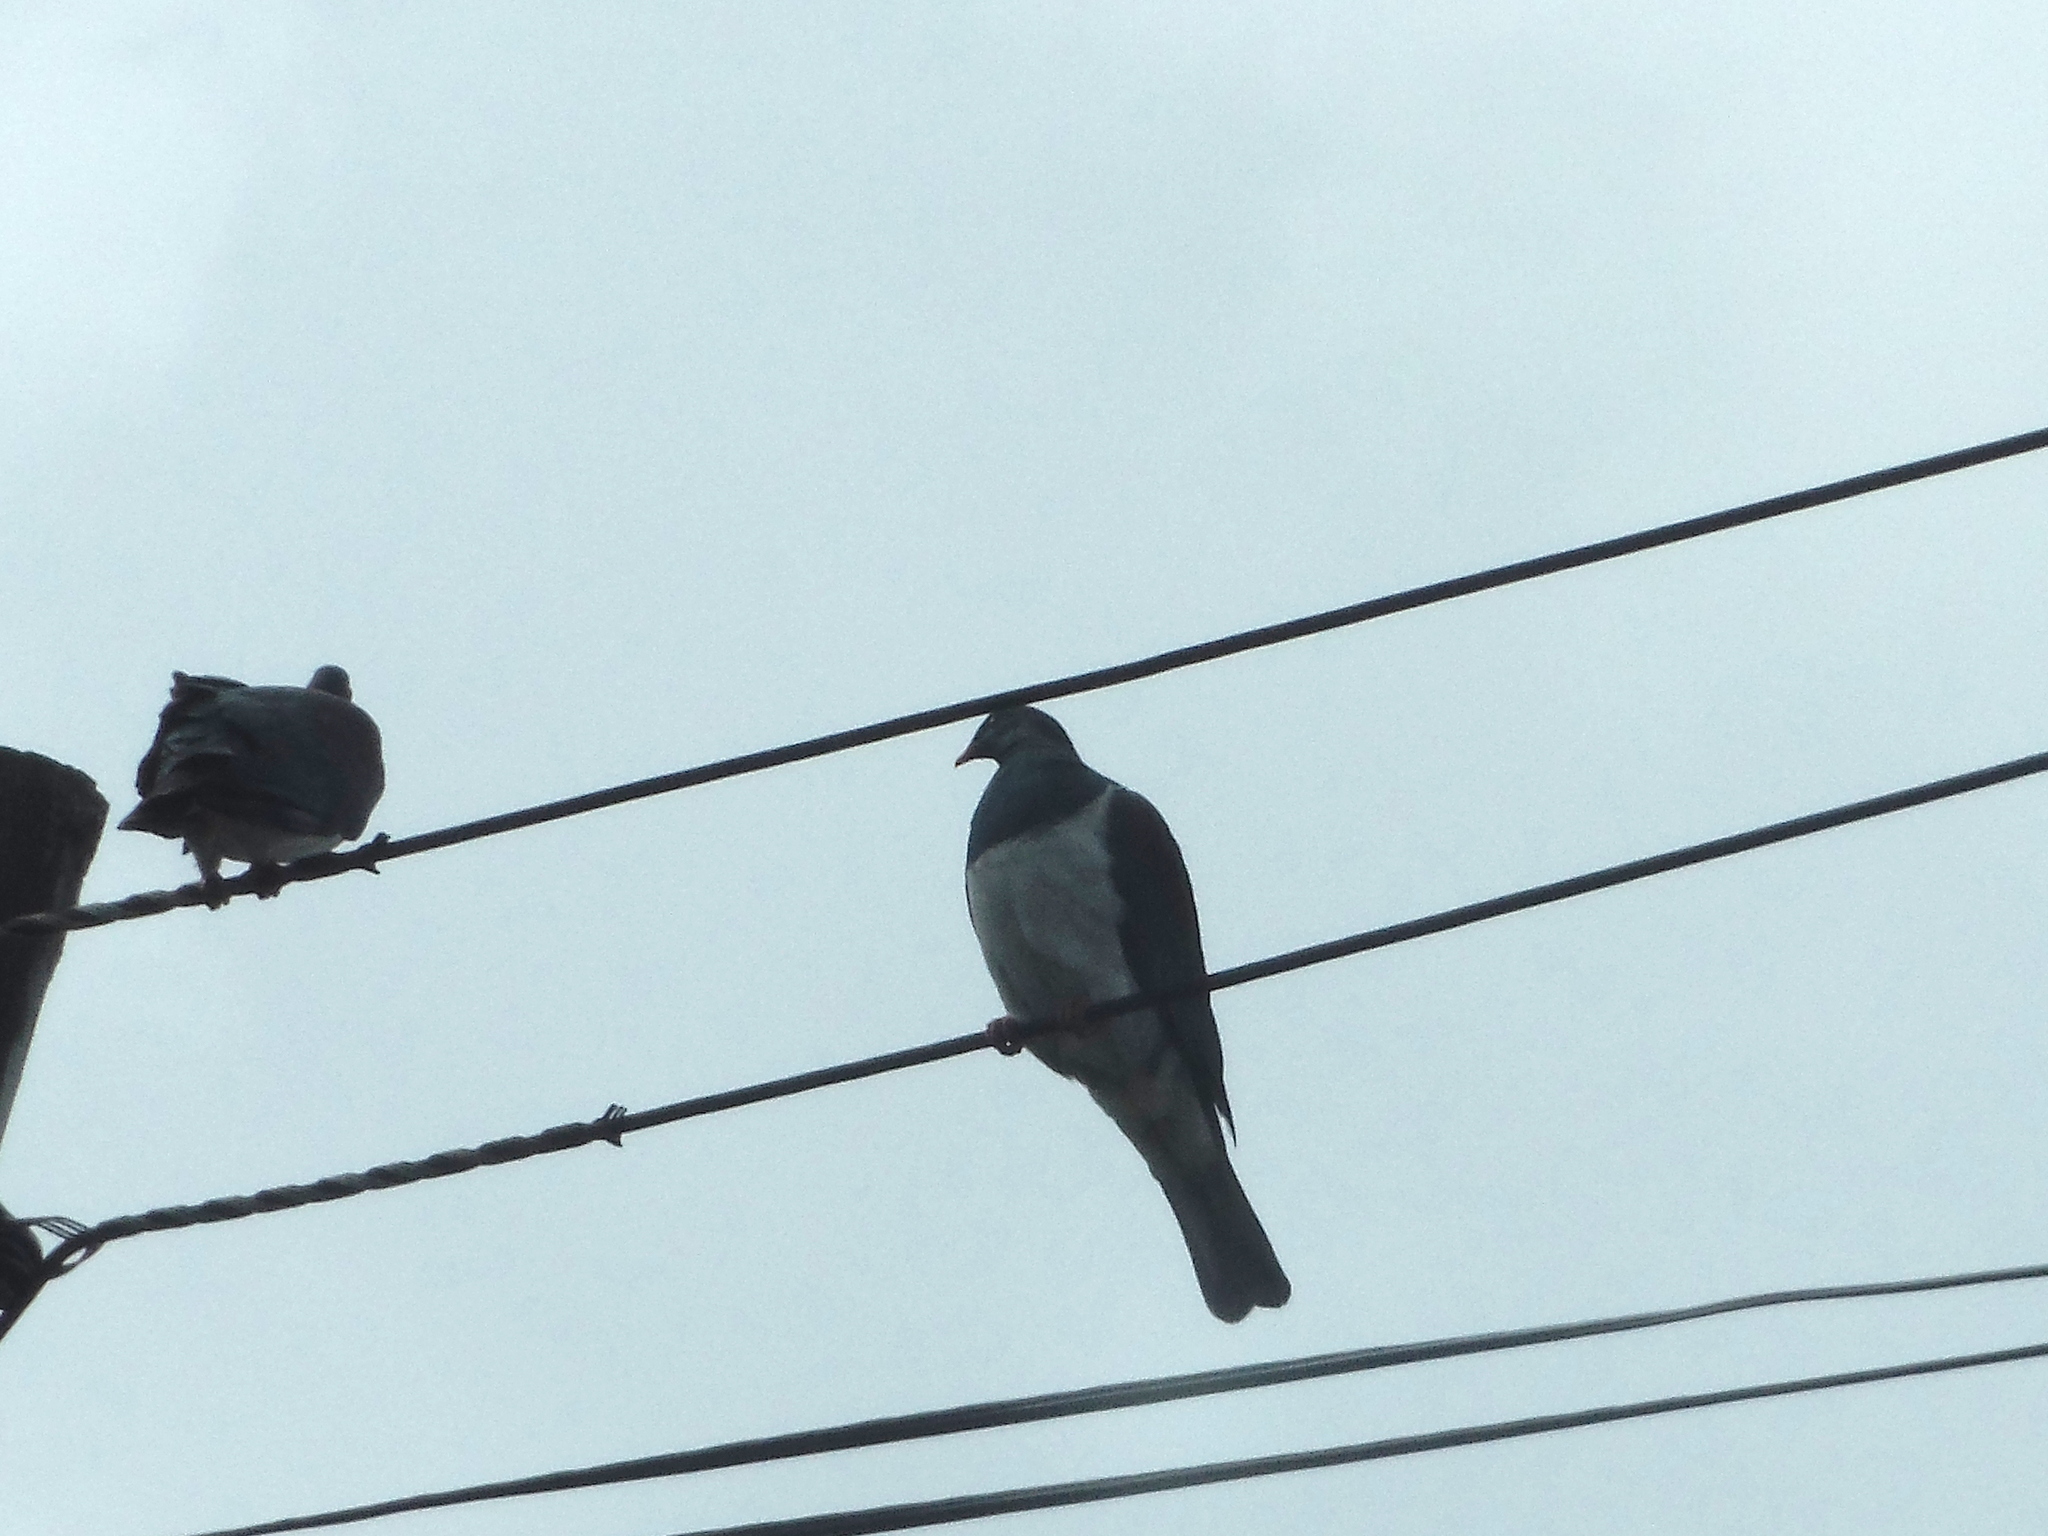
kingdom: Animalia
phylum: Chordata
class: Aves
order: Columbiformes
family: Columbidae
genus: Hemiphaga
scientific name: Hemiphaga novaeseelandiae
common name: New zealand pigeon
